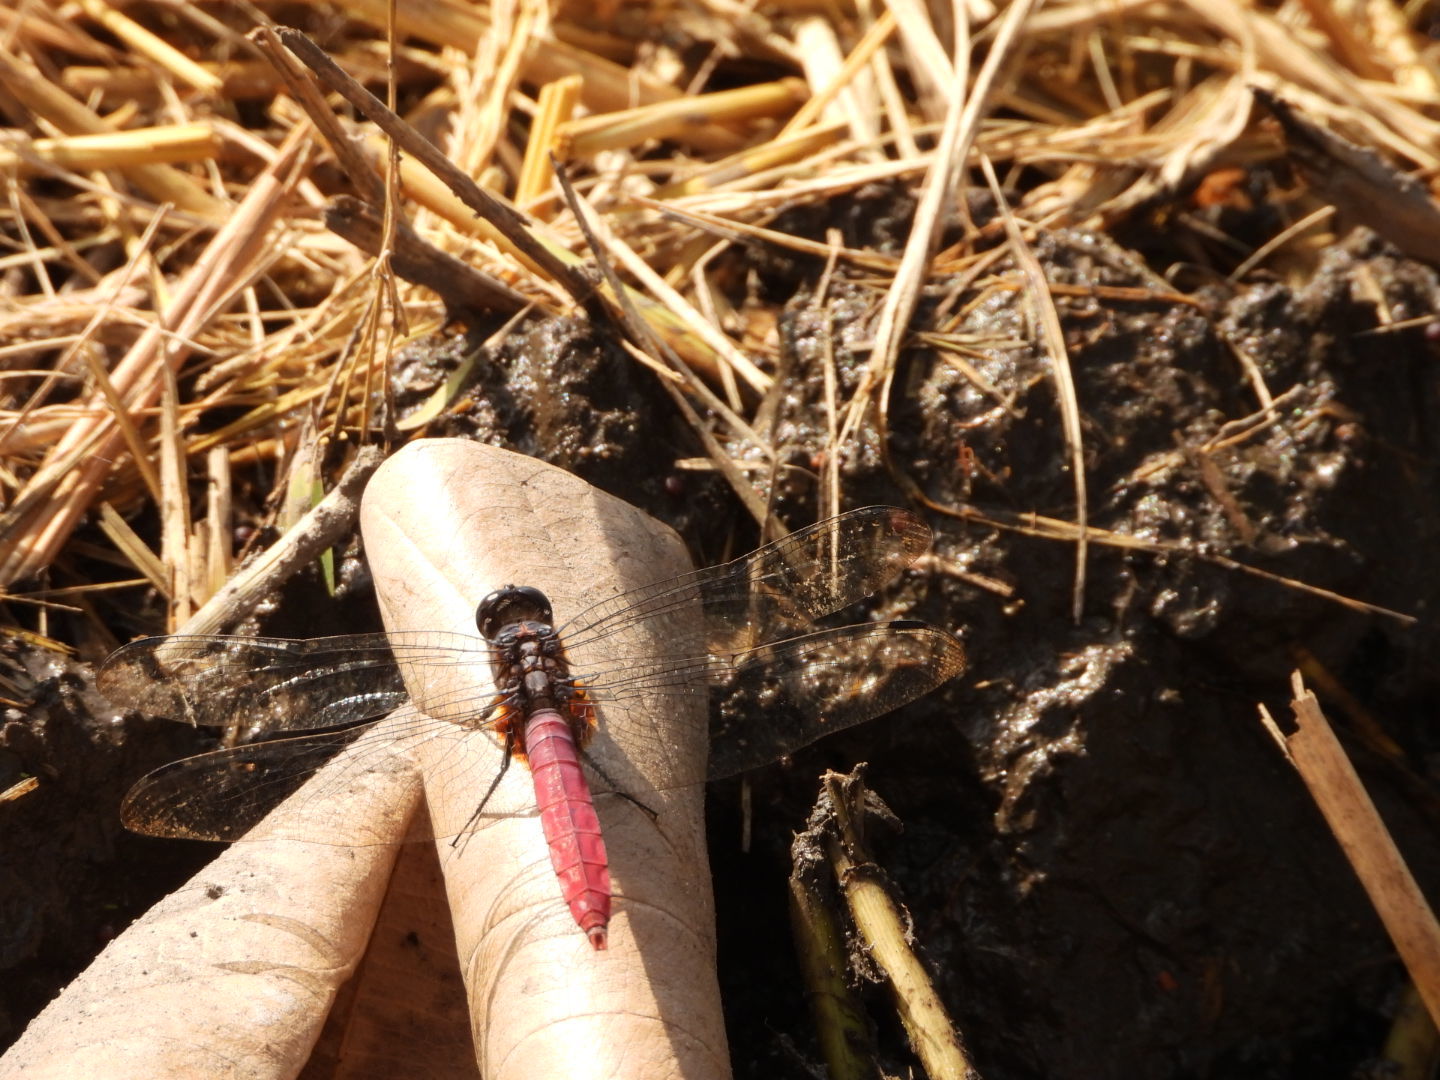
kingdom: Animalia
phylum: Arthropoda
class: Insecta
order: Odonata
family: Libellulidae
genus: Orthetrum
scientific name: Orthetrum pruinosum
